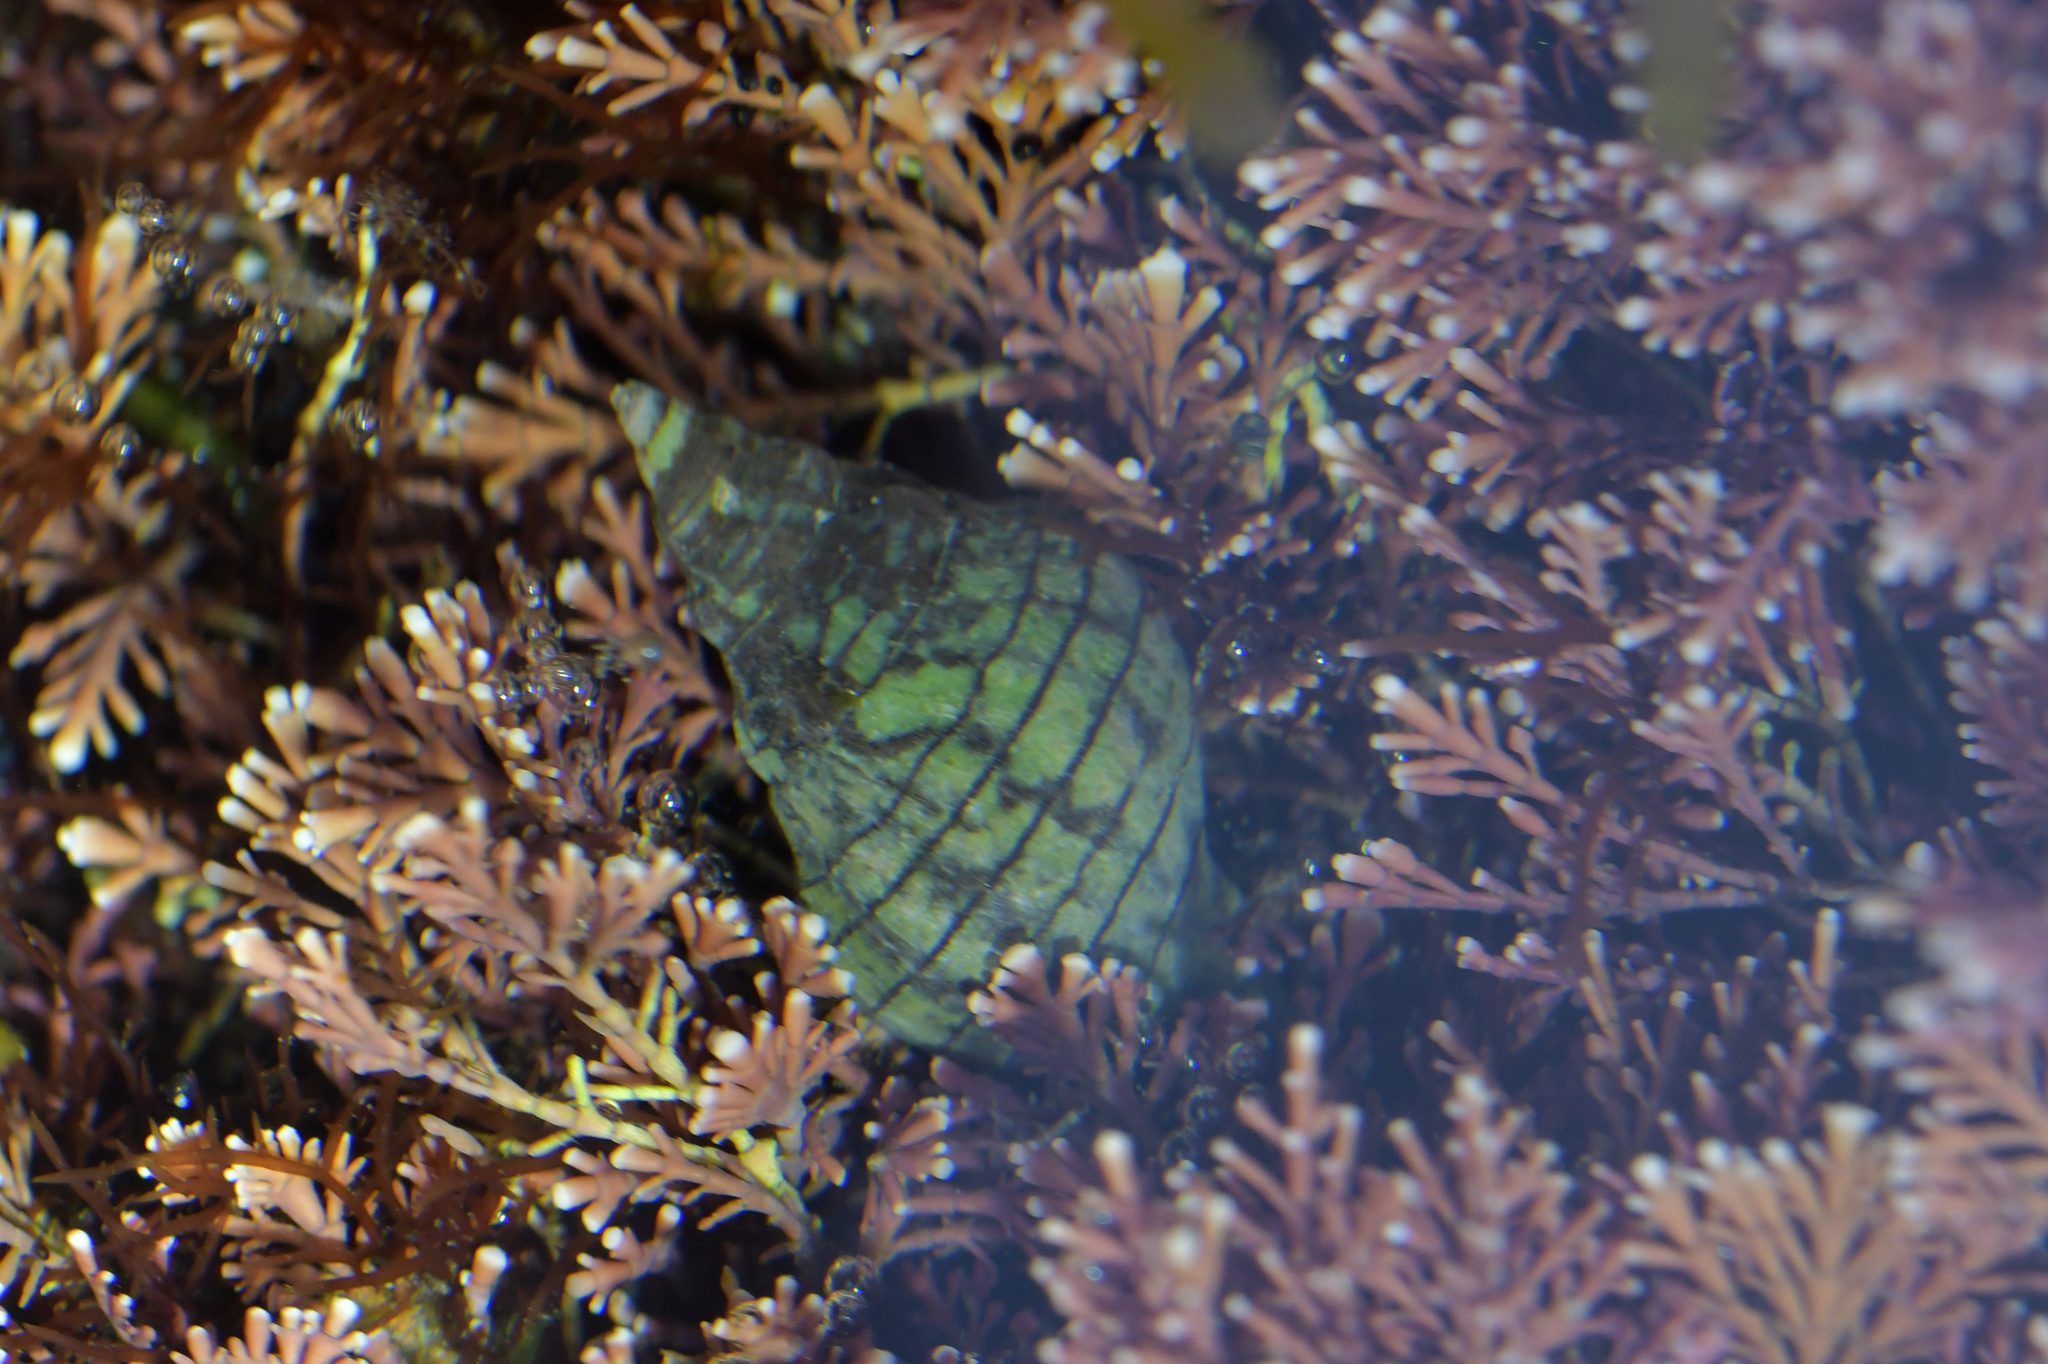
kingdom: Animalia
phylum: Mollusca
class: Gastropoda
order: Neogastropoda
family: Cominellidae
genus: Cominella
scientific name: Cominella virgata
